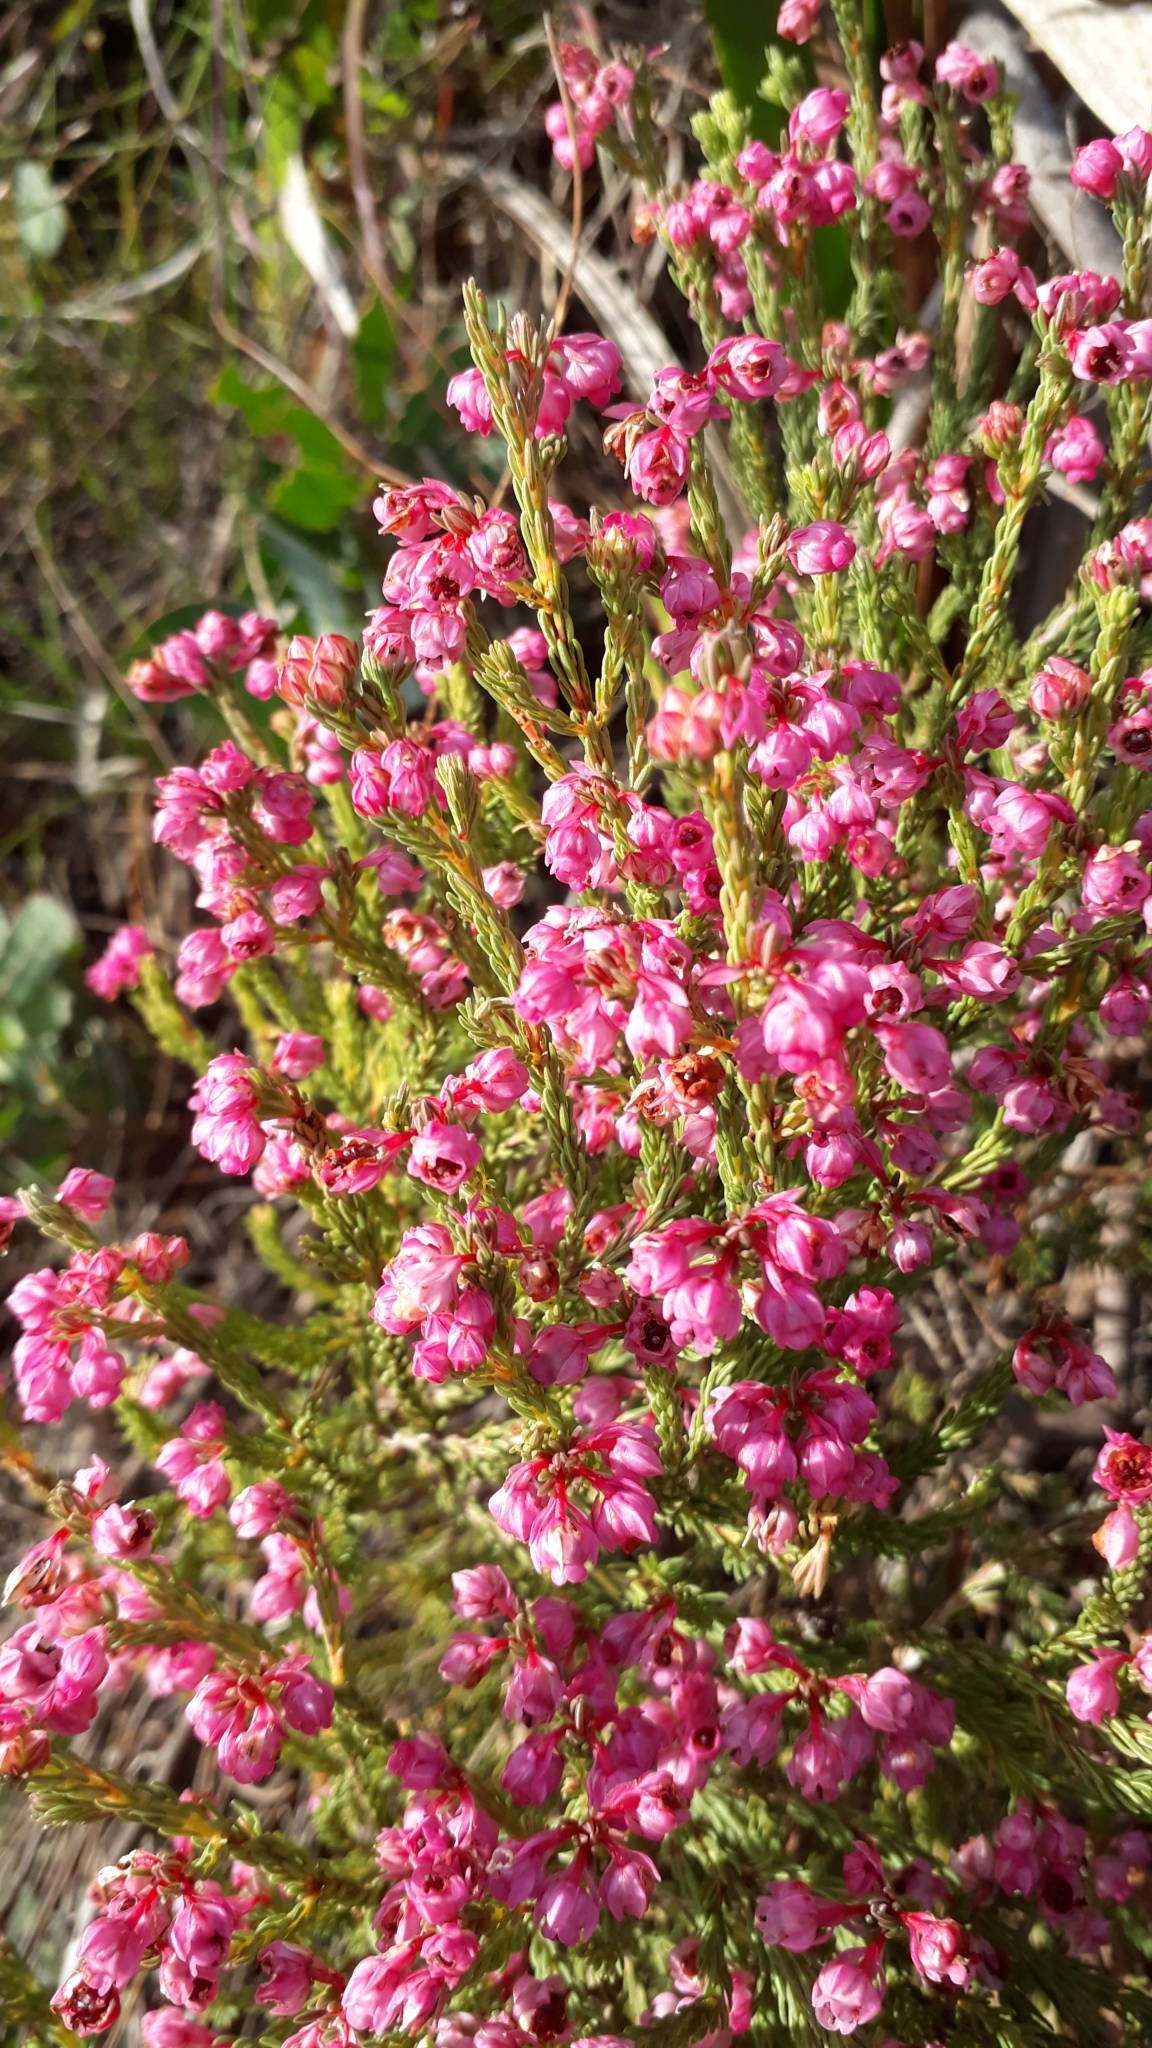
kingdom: Plantae
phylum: Tracheophyta
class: Magnoliopsida
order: Ericales
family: Ericaceae
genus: Erica
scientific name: Erica baccans
